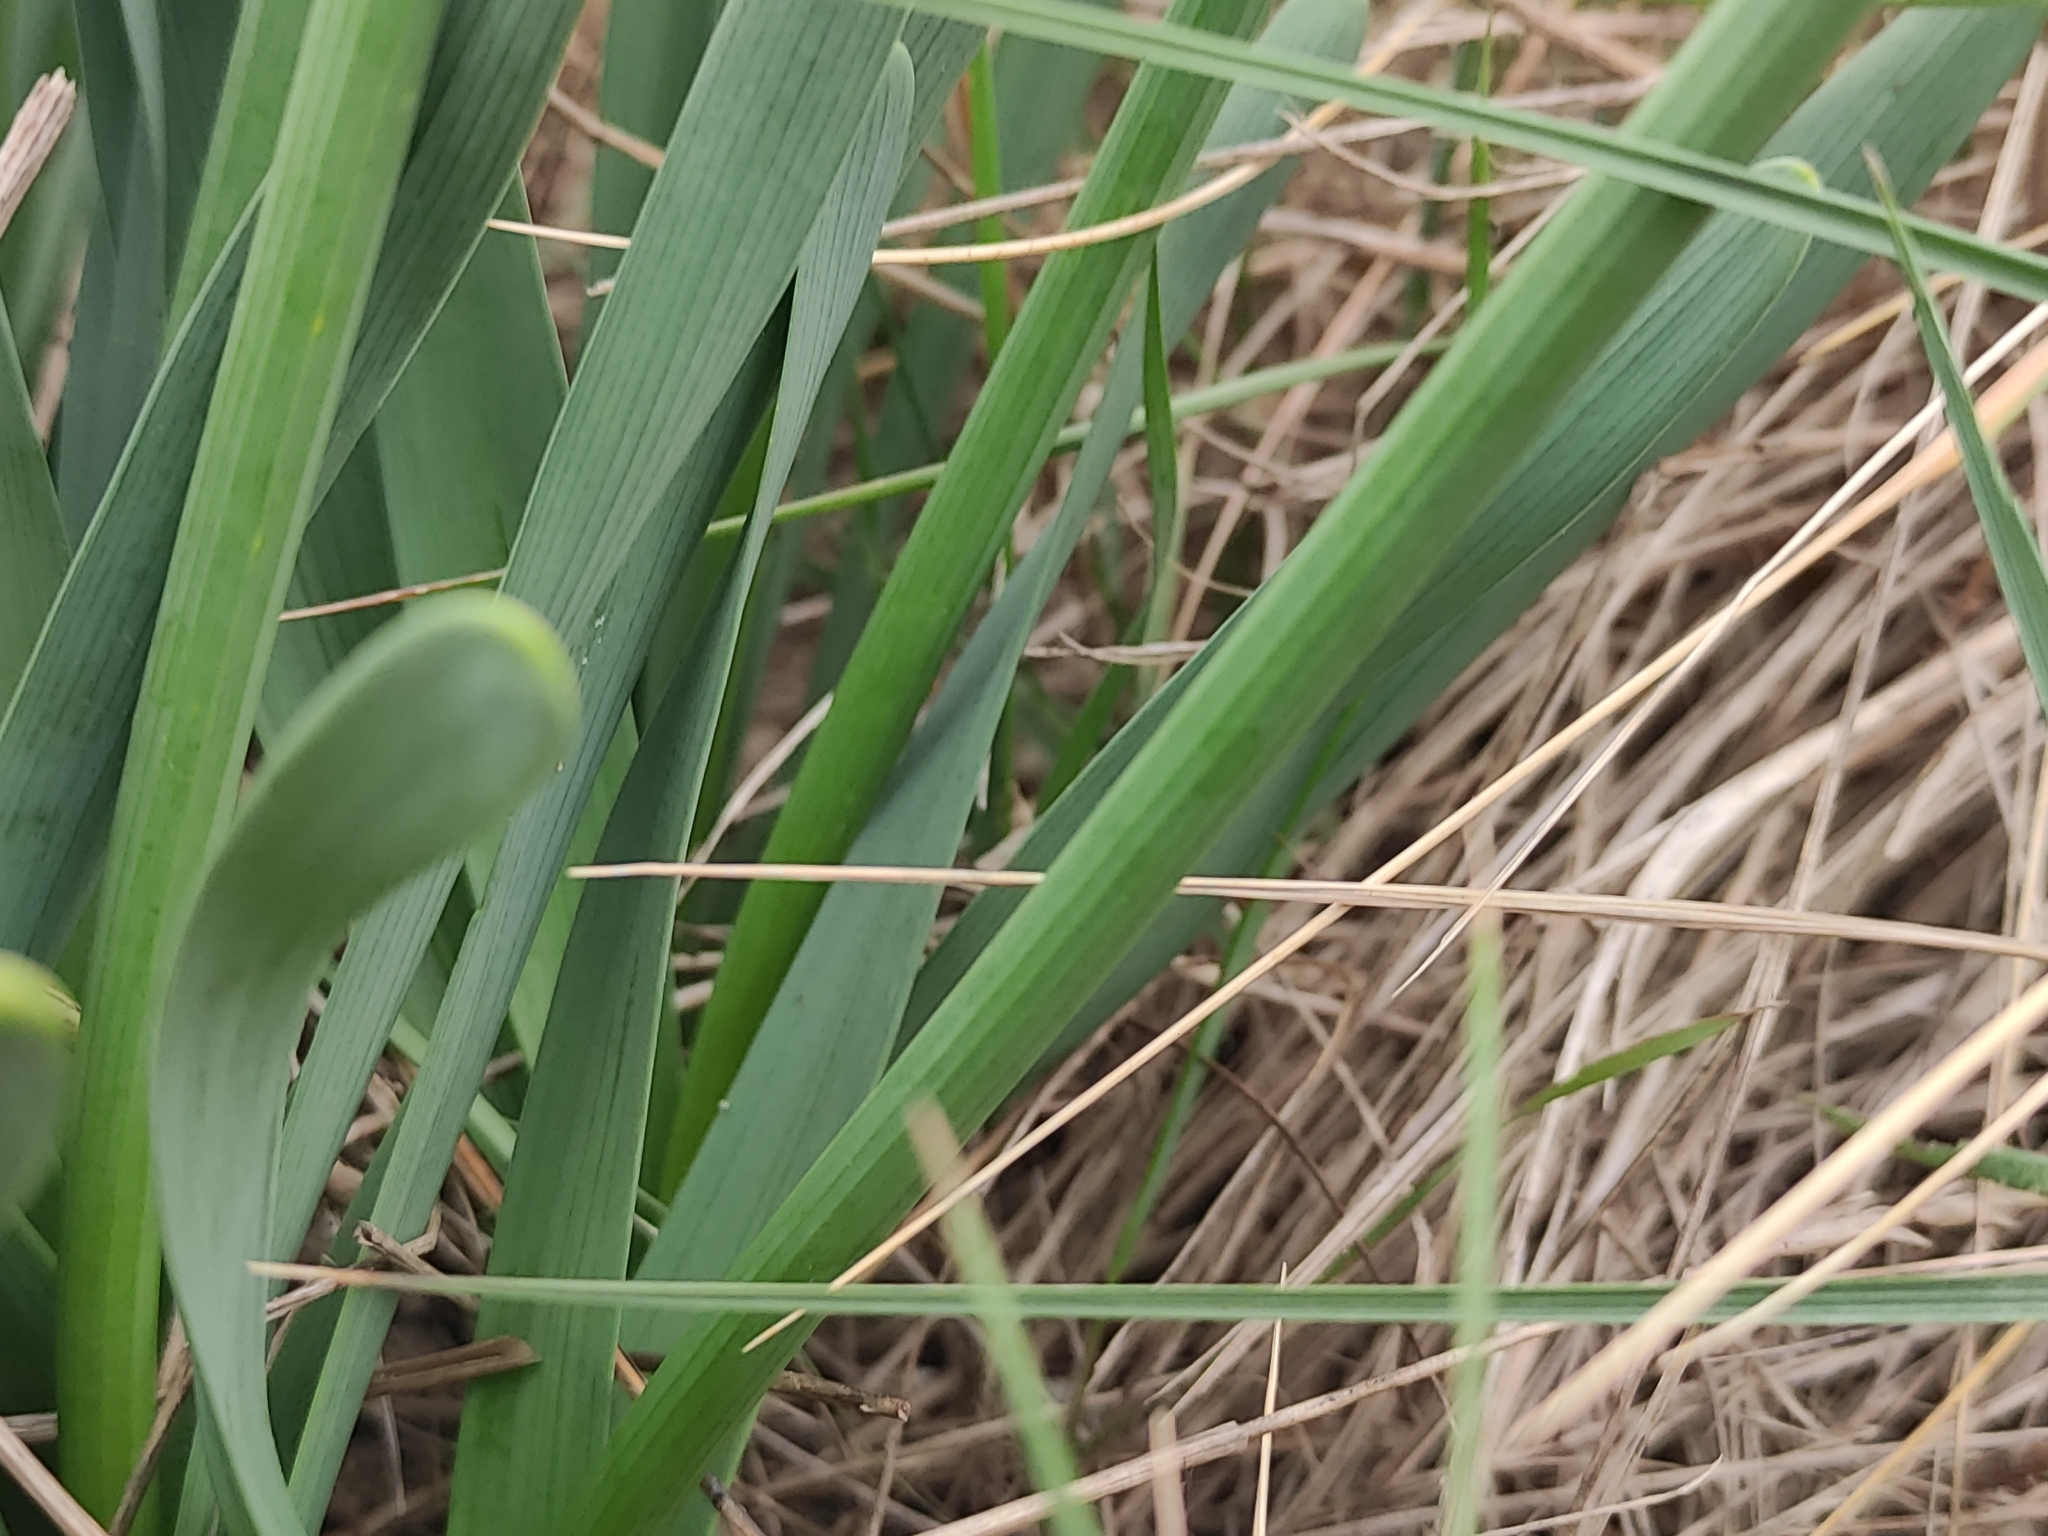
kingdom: Plantae
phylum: Tracheophyta
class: Liliopsida
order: Asparagales
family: Amaryllidaceae
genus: Narcissus
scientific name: Narcissus tazetta
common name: Bunch-flowered daffodil
